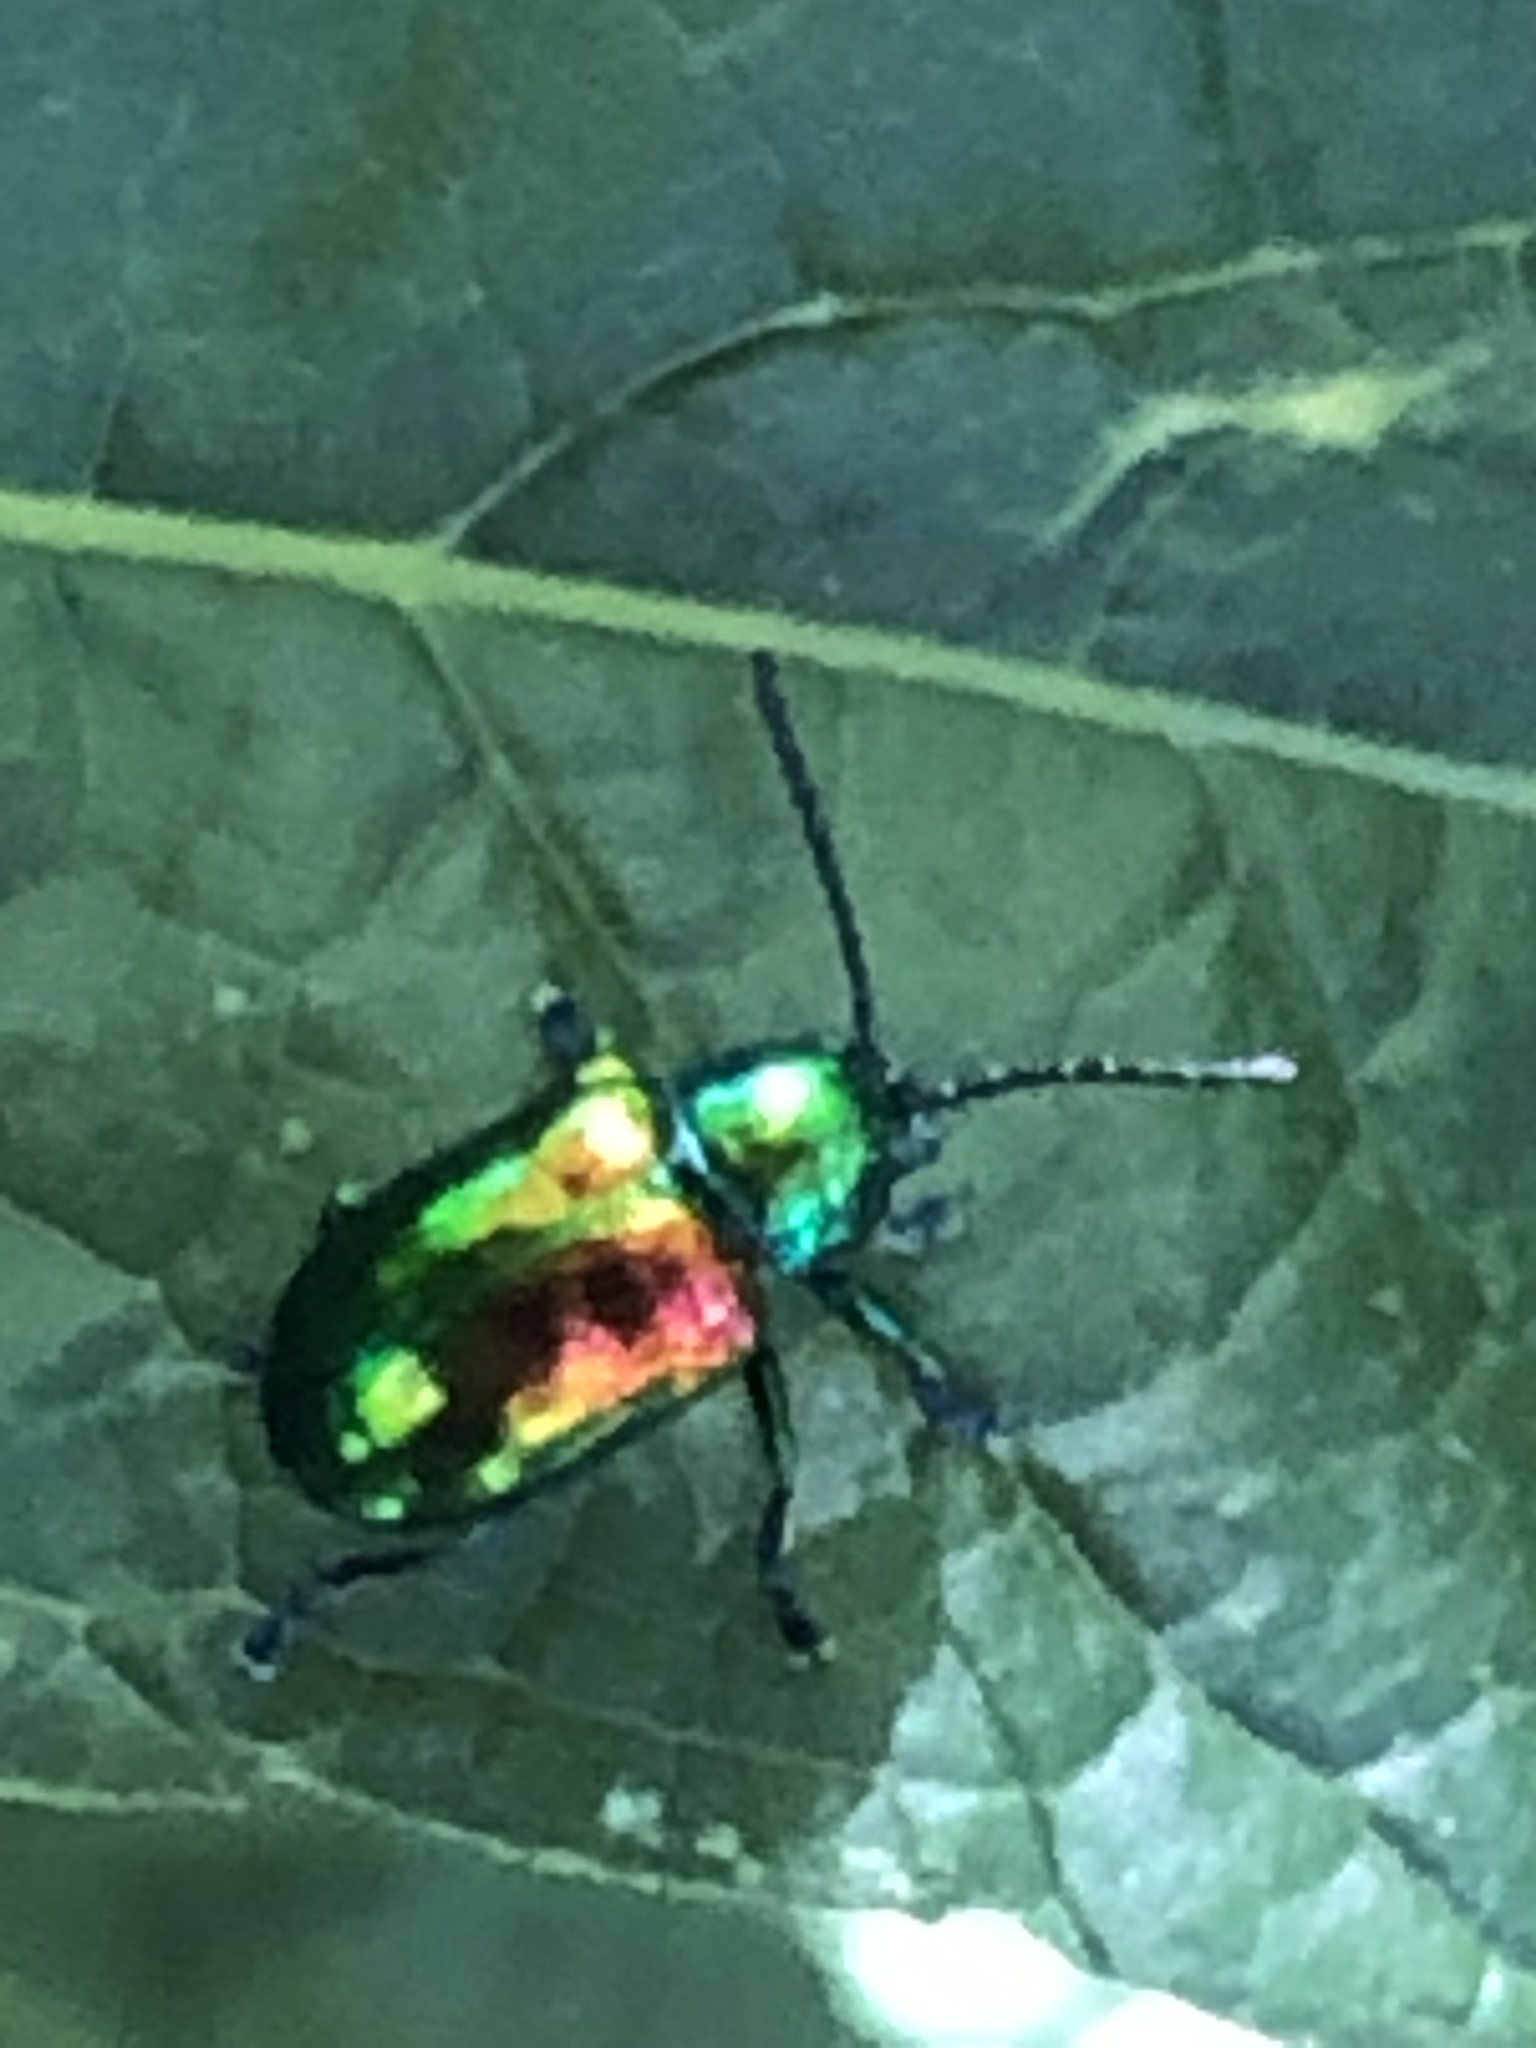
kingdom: Animalia
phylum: Arthropoda
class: Insecta
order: Coleoptera
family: Chrysomelidae
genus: Chrysochus
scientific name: Chrysochus auratus
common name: Dogbane leaf beetle
